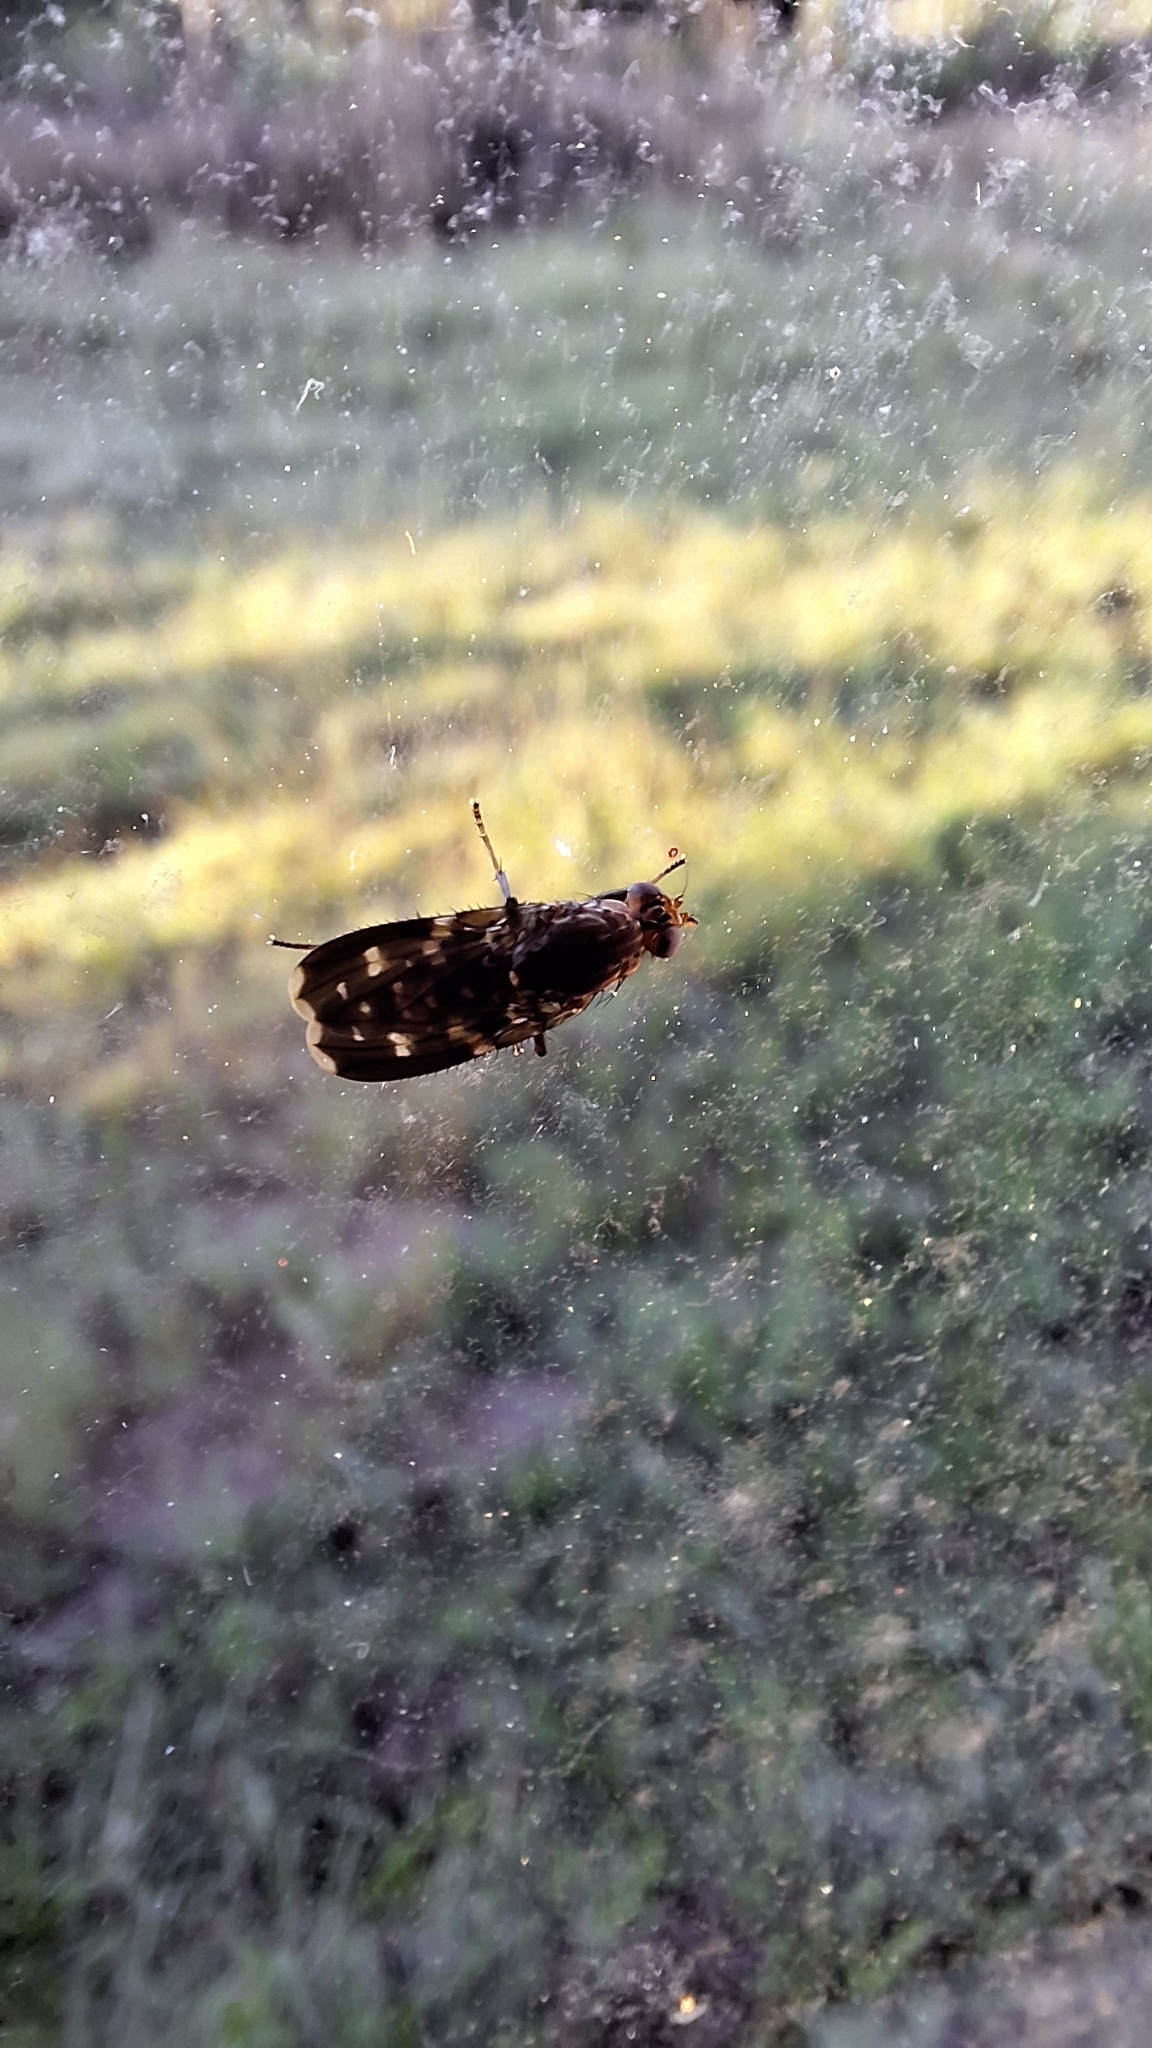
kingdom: Animalia
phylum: Arthropoda
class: Insecta
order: Diptera
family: Heleomyzidae
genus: Suillia
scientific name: Suillia picta
